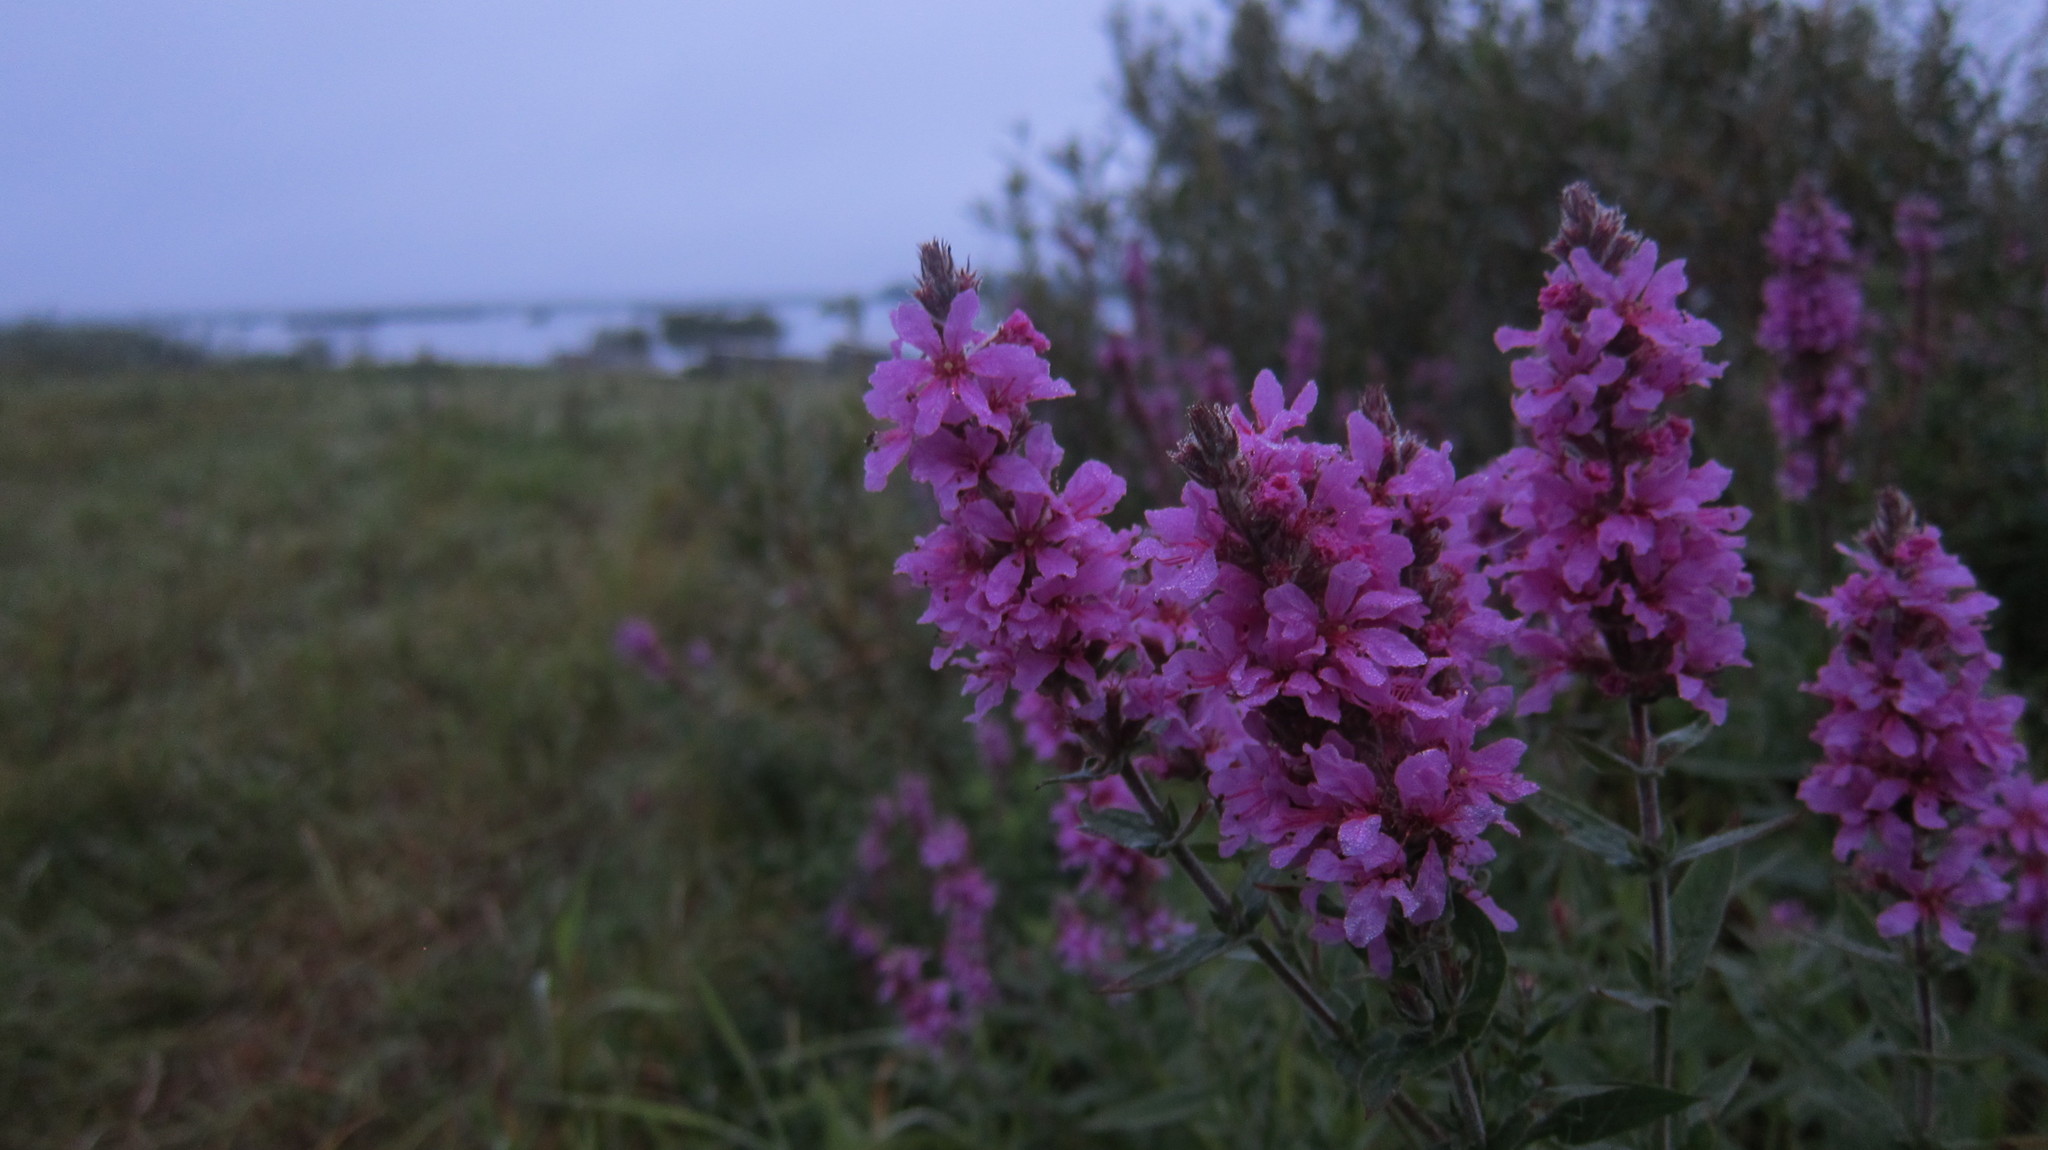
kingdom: Plantae
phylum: Tracheophyta
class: Magnoliopsida
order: Myrtales
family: Lythraceae
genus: Lythrum
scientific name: Lythrum salicaria
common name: Purple loosestrife
